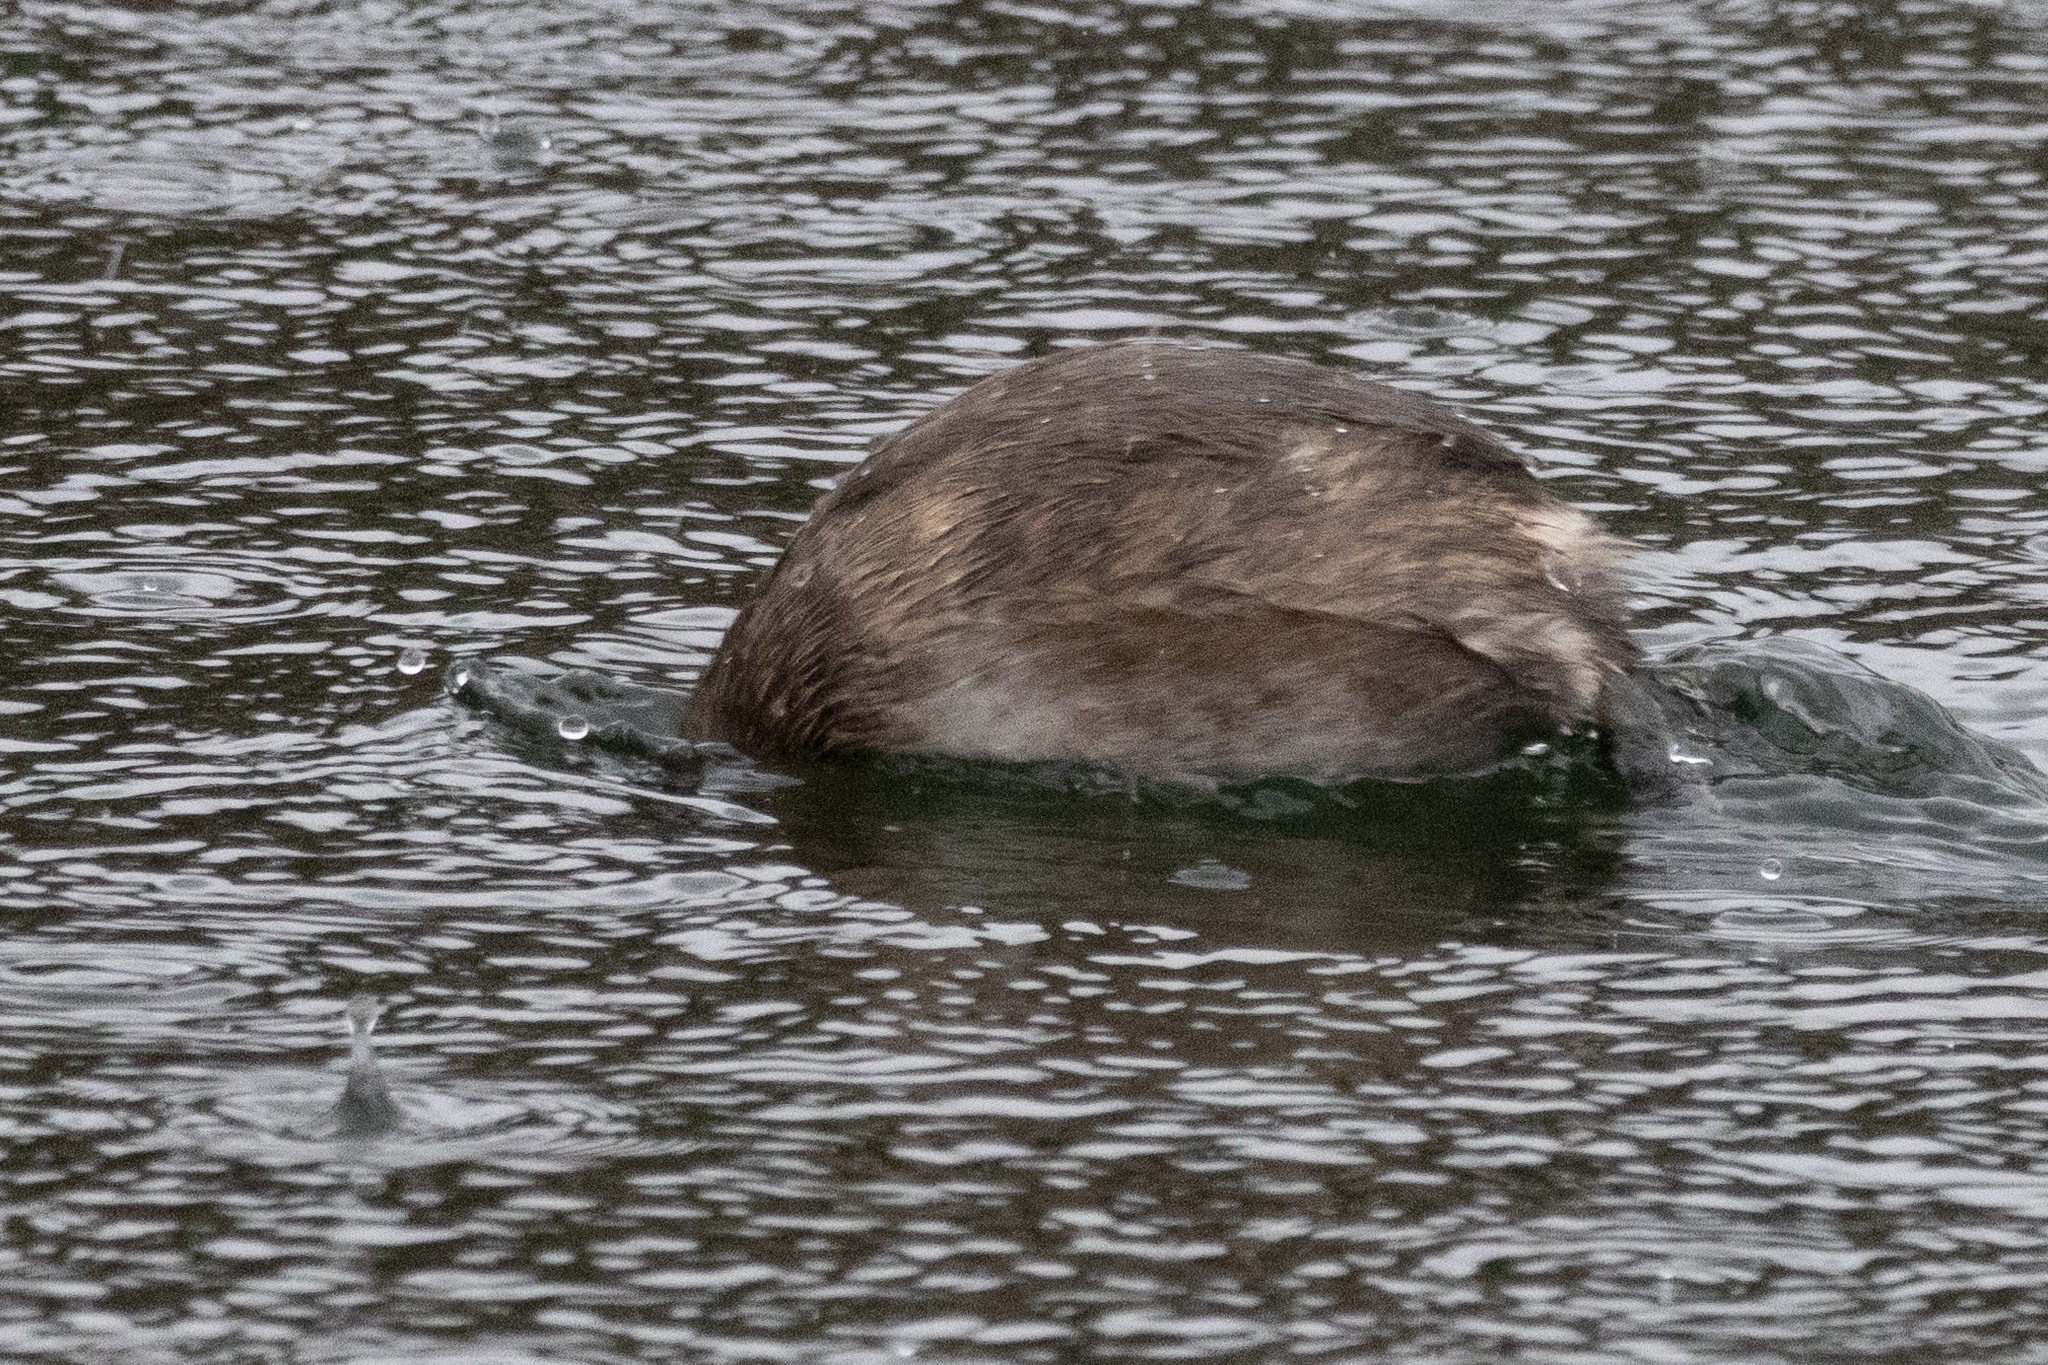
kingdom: Animalia
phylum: Chordata
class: Aves
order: Podicipediformes
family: Podicipedidae
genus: Tachybaptus
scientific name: Tachybaptus ruficollis
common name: Little grebe
